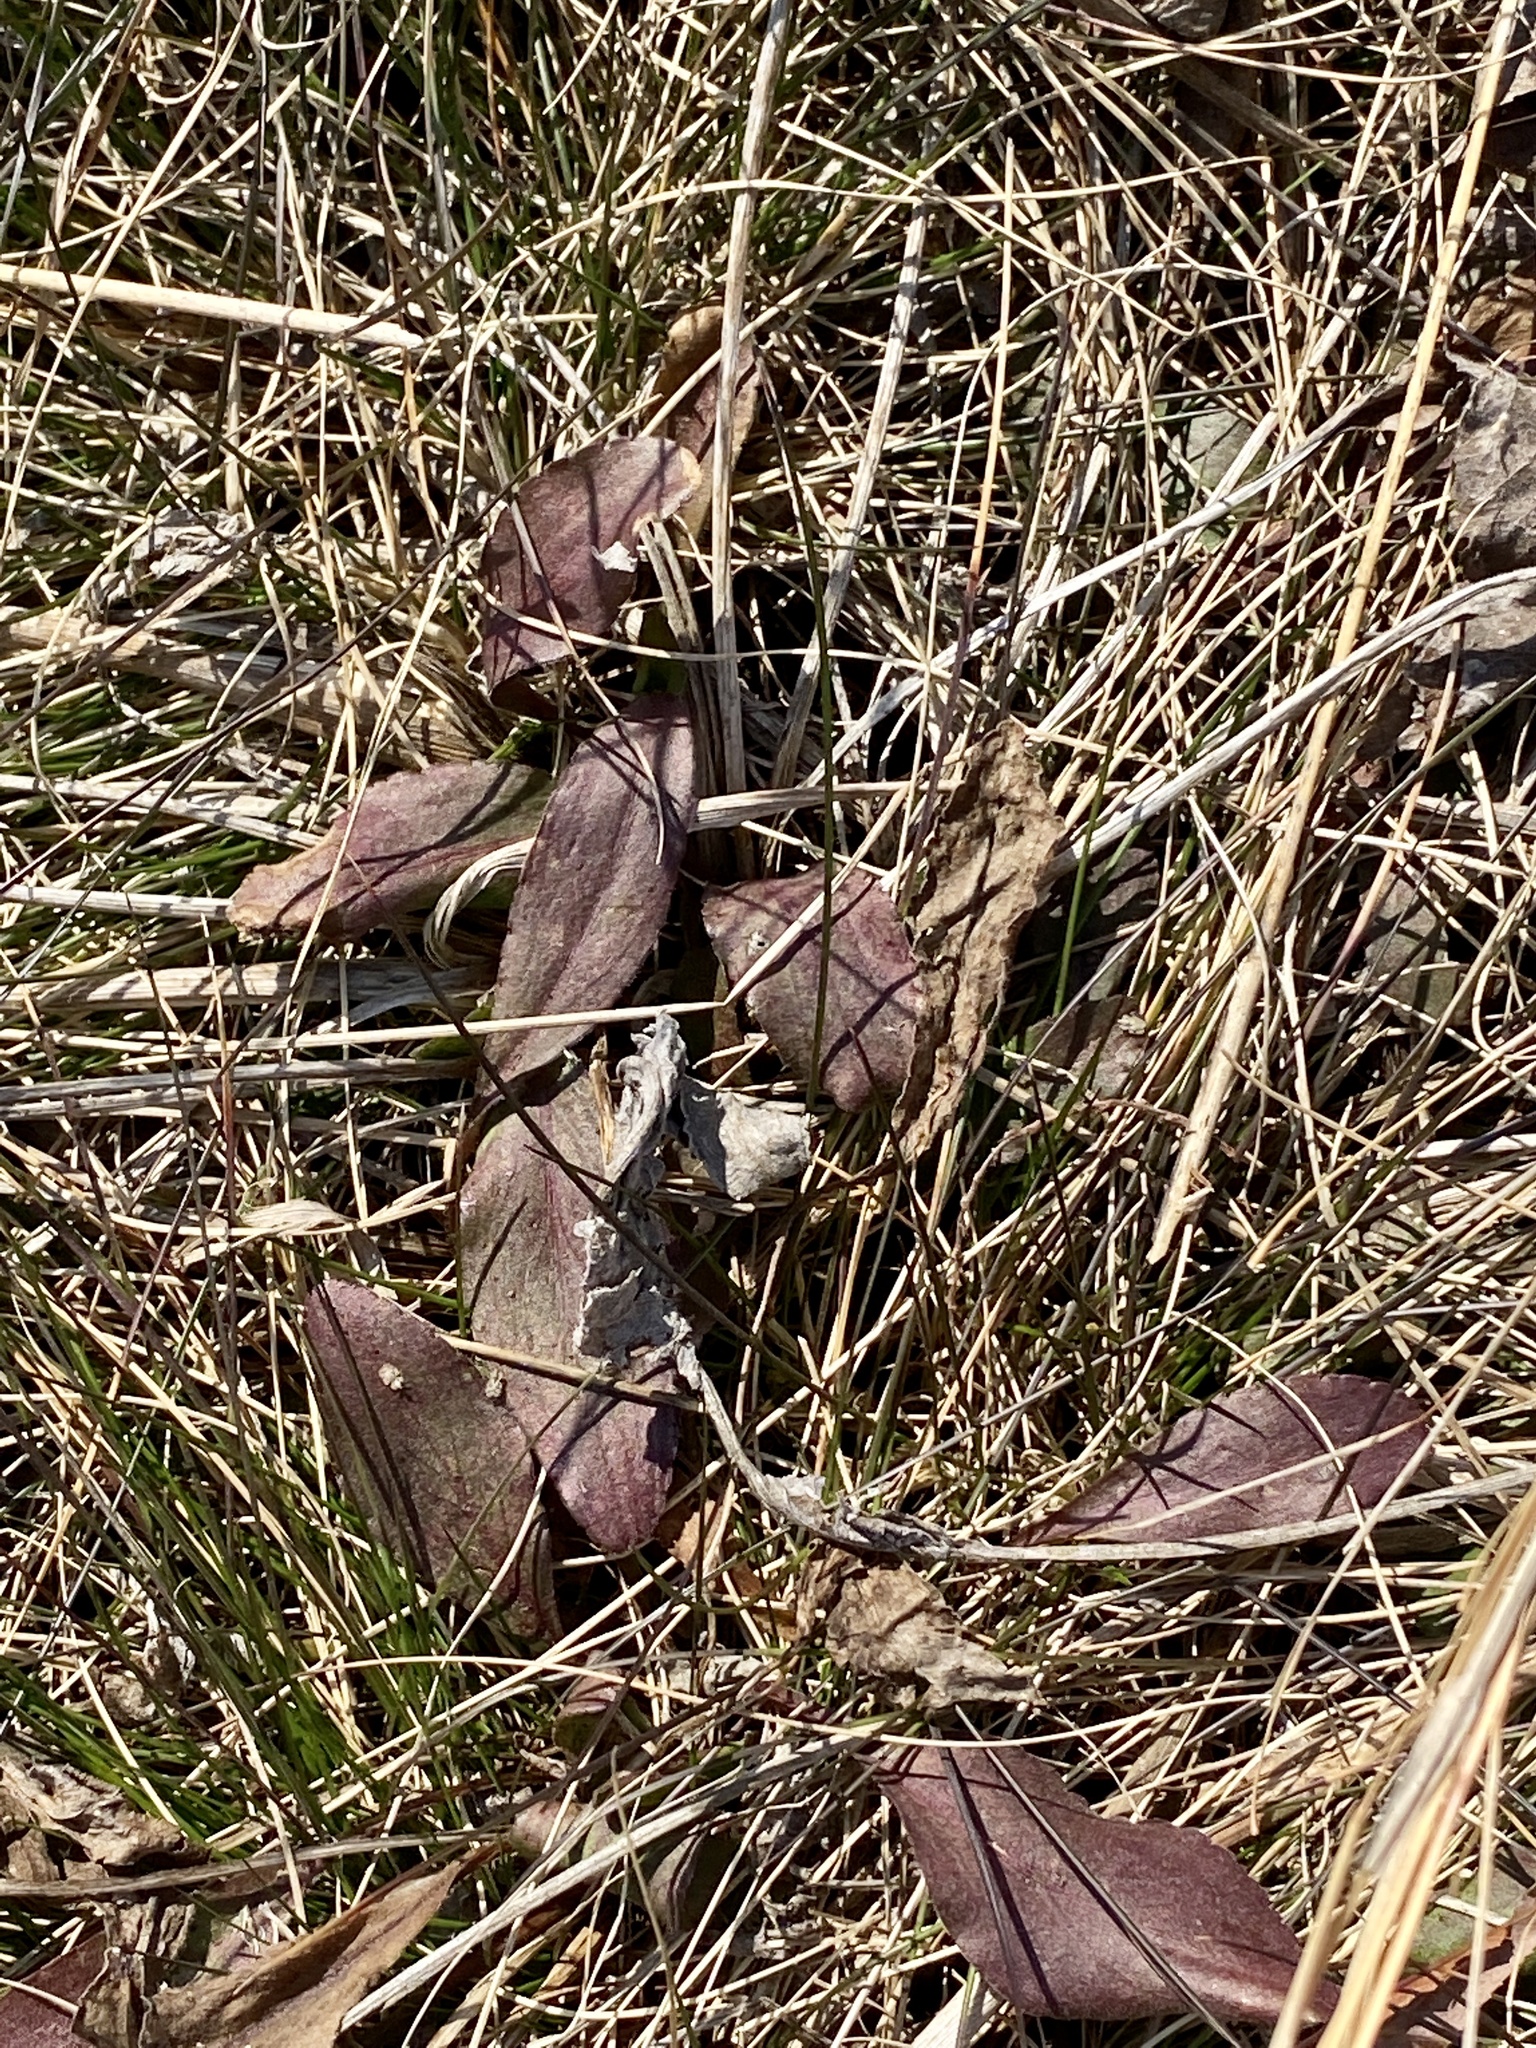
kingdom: Plantae
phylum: Tracheophyta
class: Magnoliopsida
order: Asterales
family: Asteraceae
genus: Solidago
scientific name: Solidago rigida
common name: Rigid goldenrod
